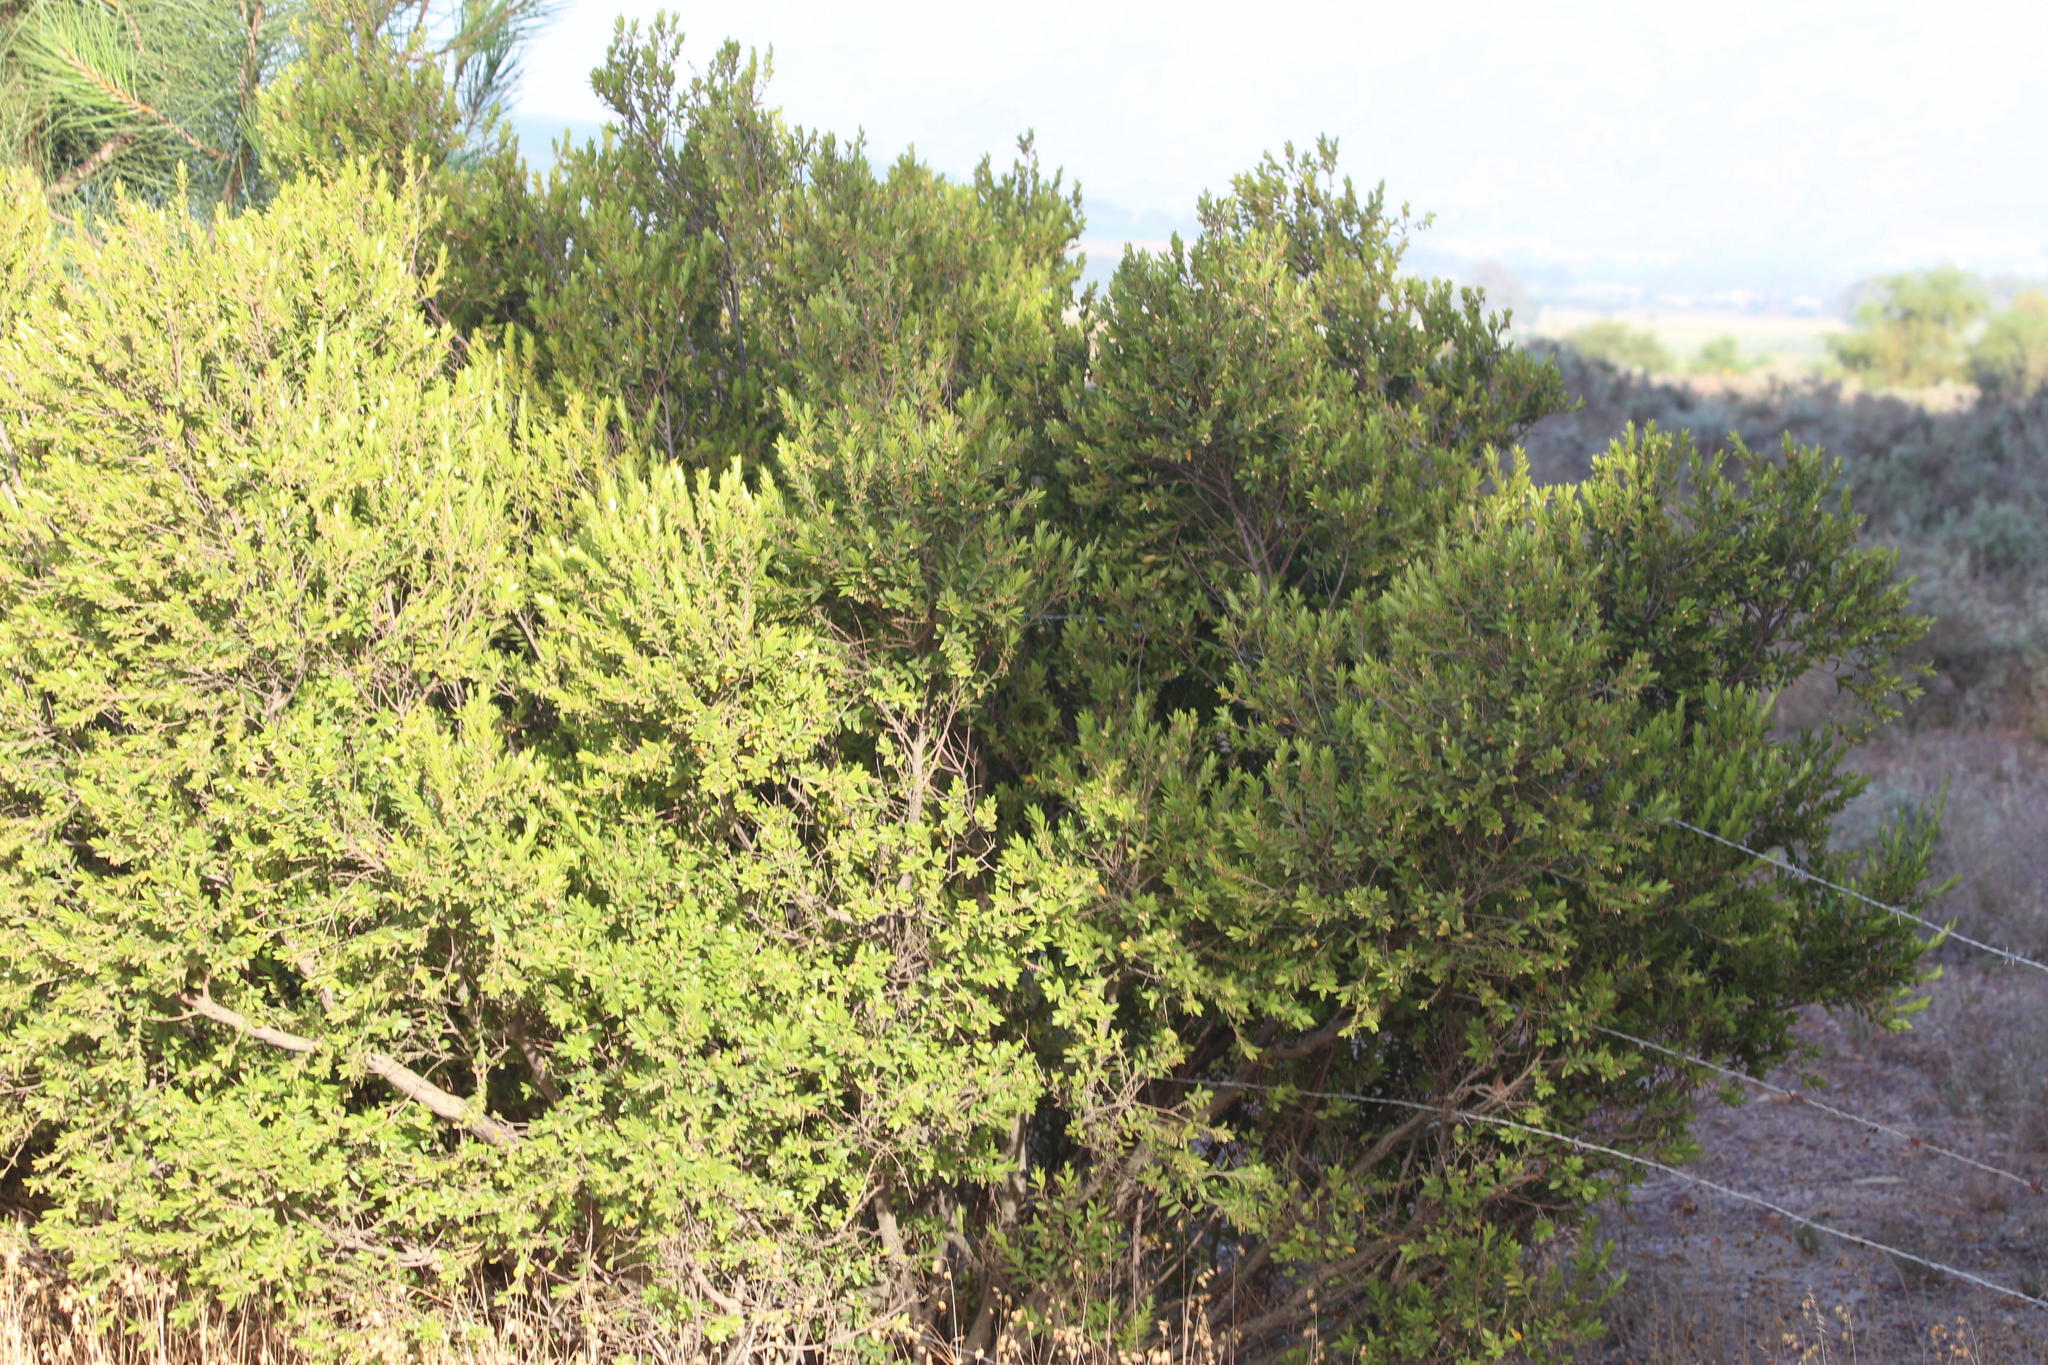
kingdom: Plantae
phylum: Tracheophyta
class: Magnoliopsida
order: Ericales
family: Ebenaceae
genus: Diospyros
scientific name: Diospyros glabra
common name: Fynbos star apple
